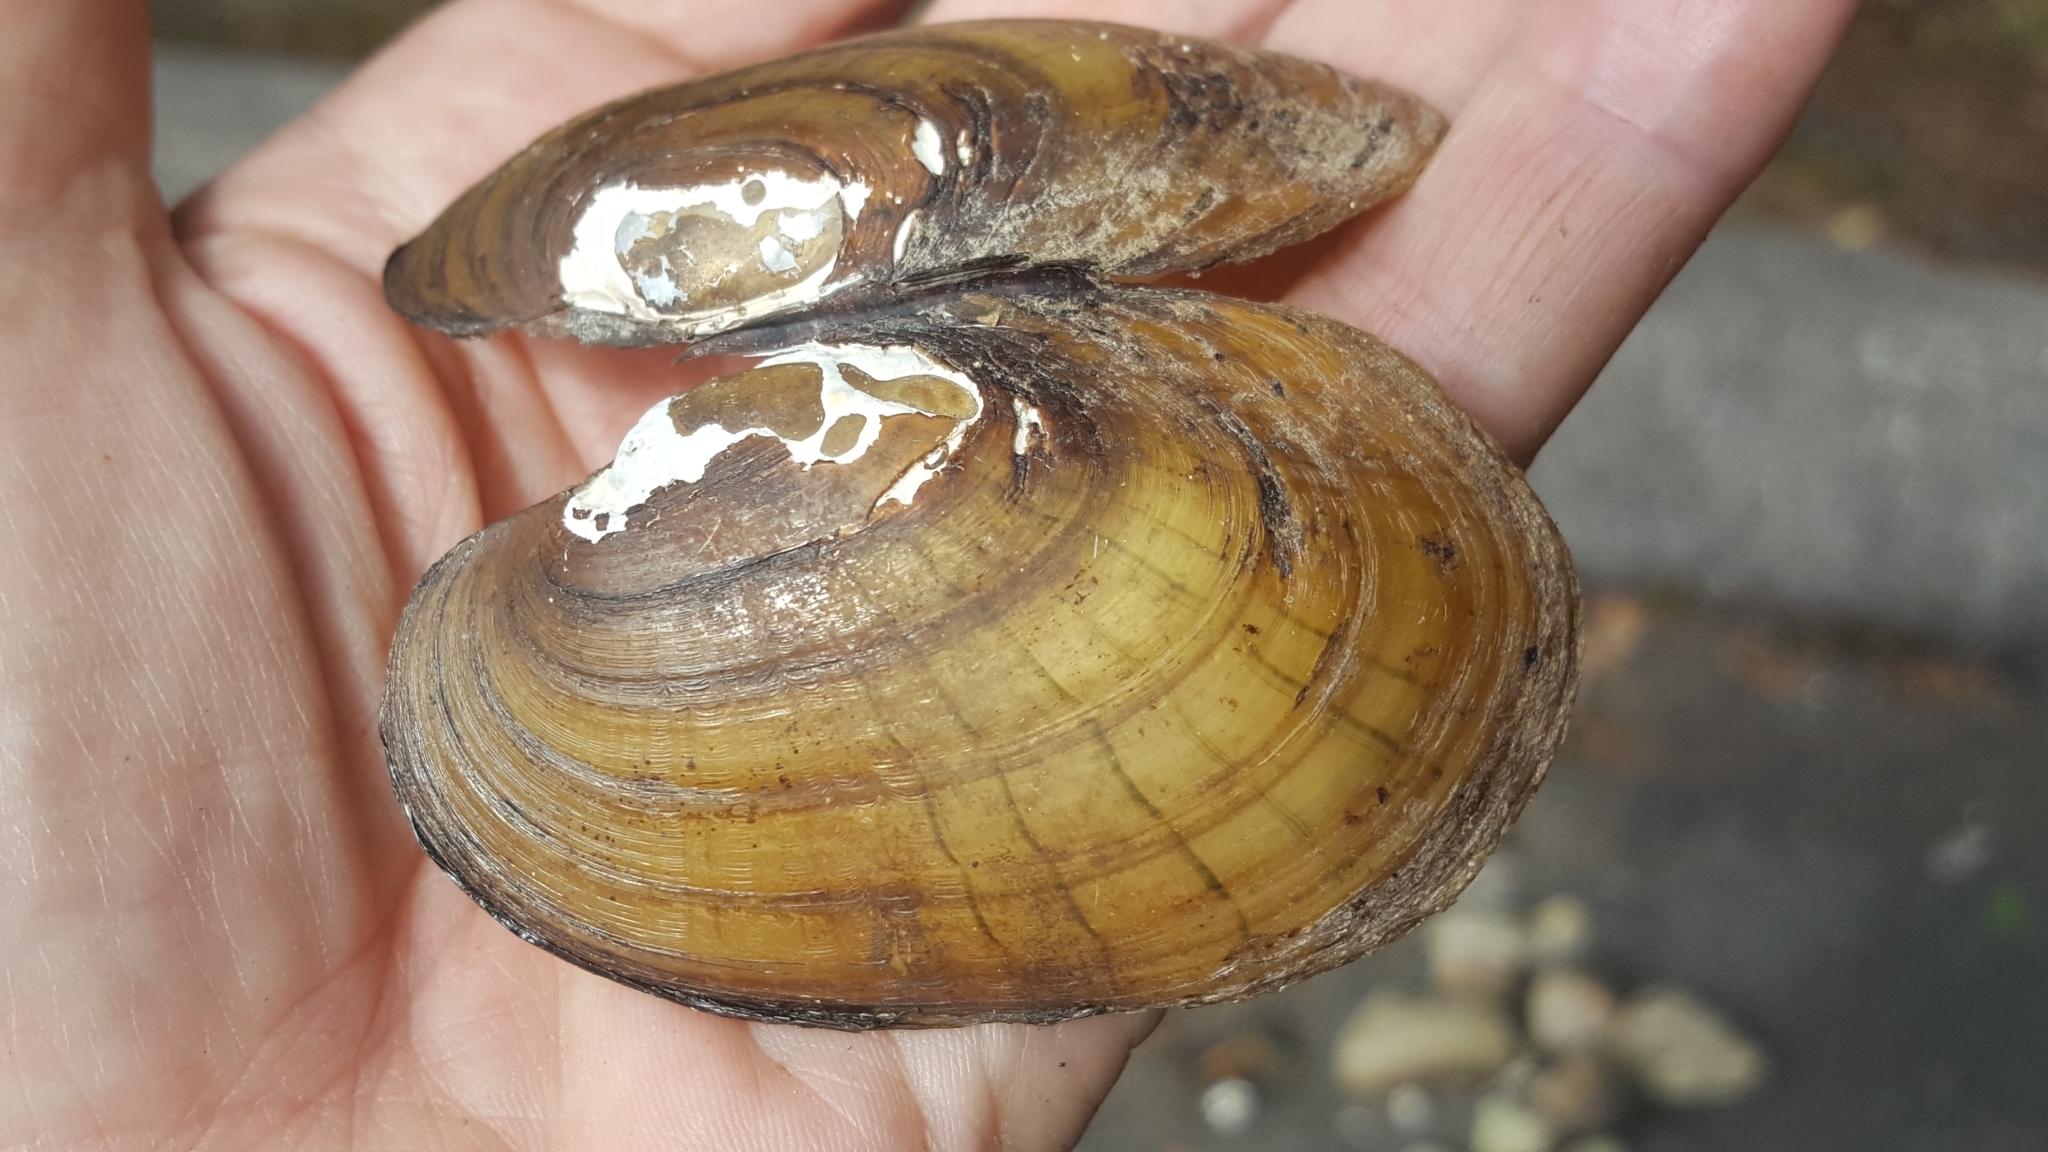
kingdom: Animalia
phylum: Mollusca
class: Bivalvia
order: Unionida
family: Unionidae
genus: Lampsilis
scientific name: Lampsilis siliquoidea
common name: Fatmucket
